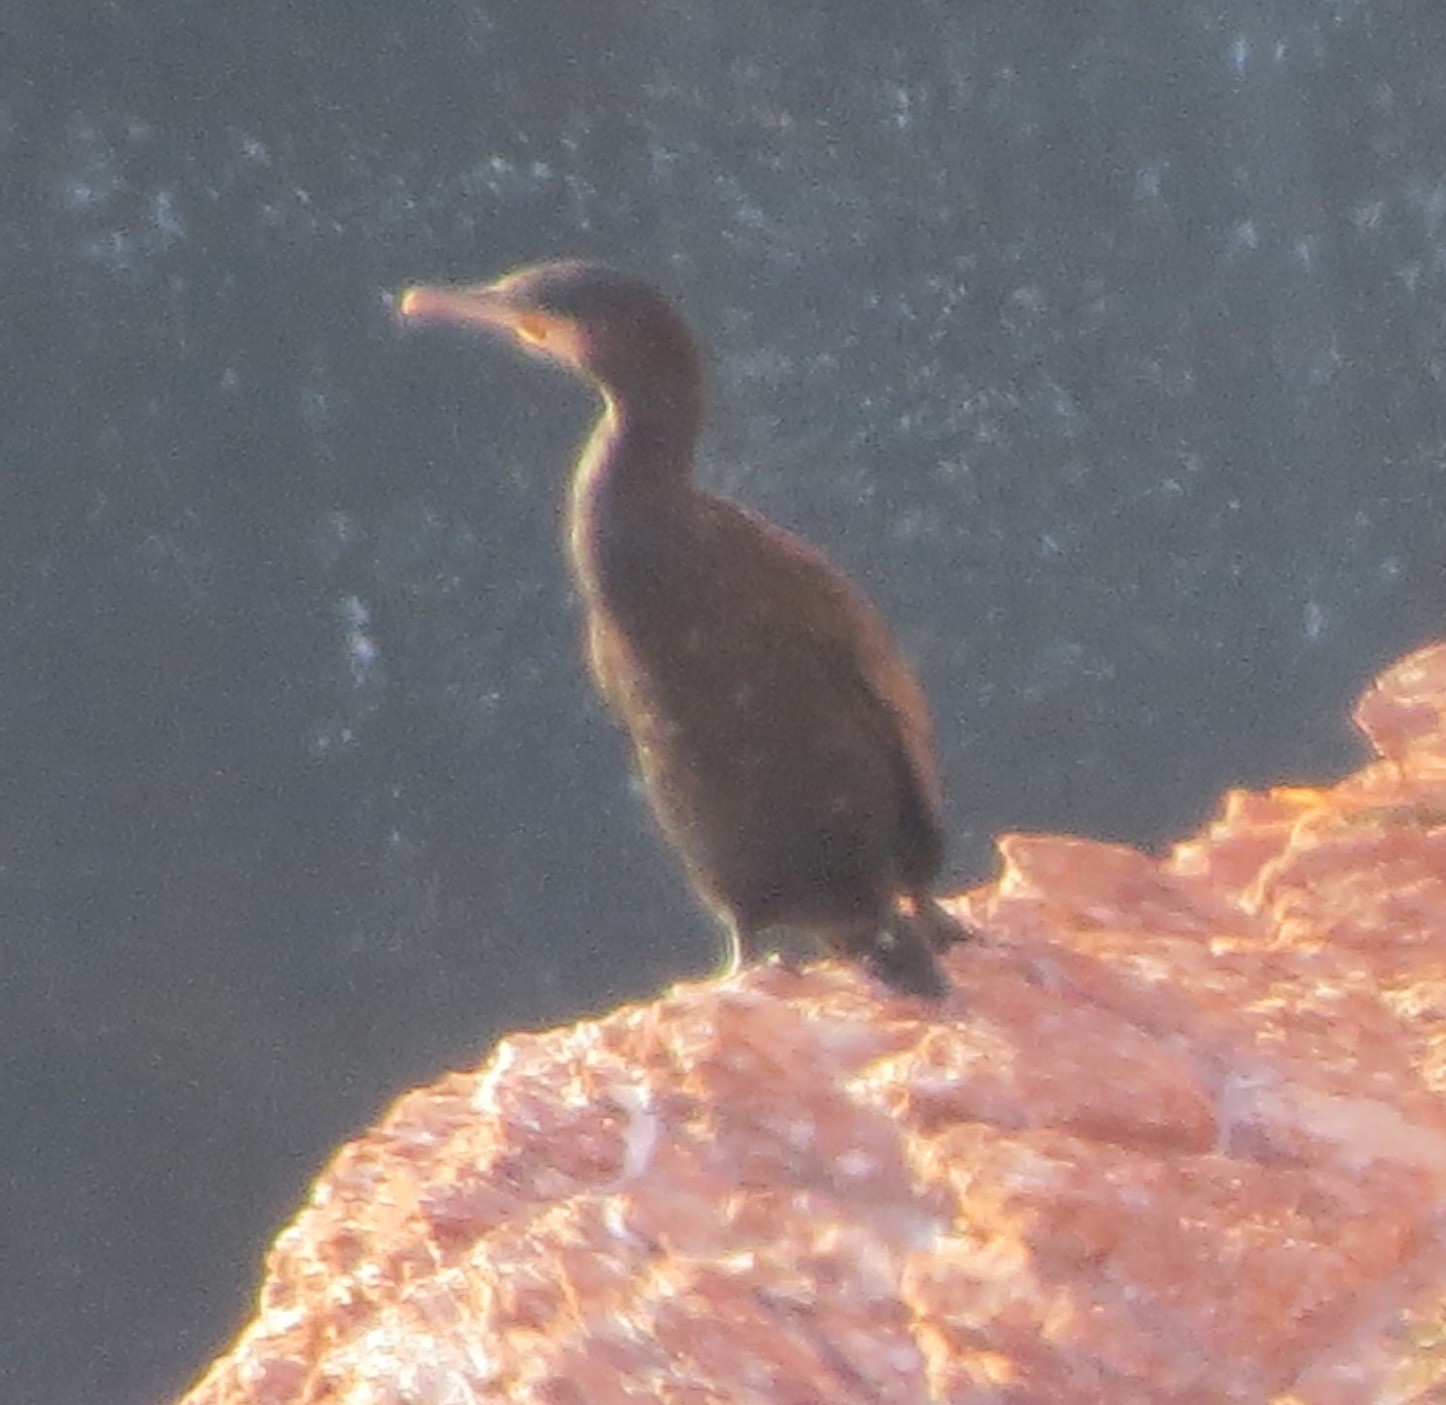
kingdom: Animalia
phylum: Chordata
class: Aves
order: Suliformes
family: Phalacrocoracidae
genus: Phalacrocorax
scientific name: Phalacrocorax carbo
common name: Great cormorant
